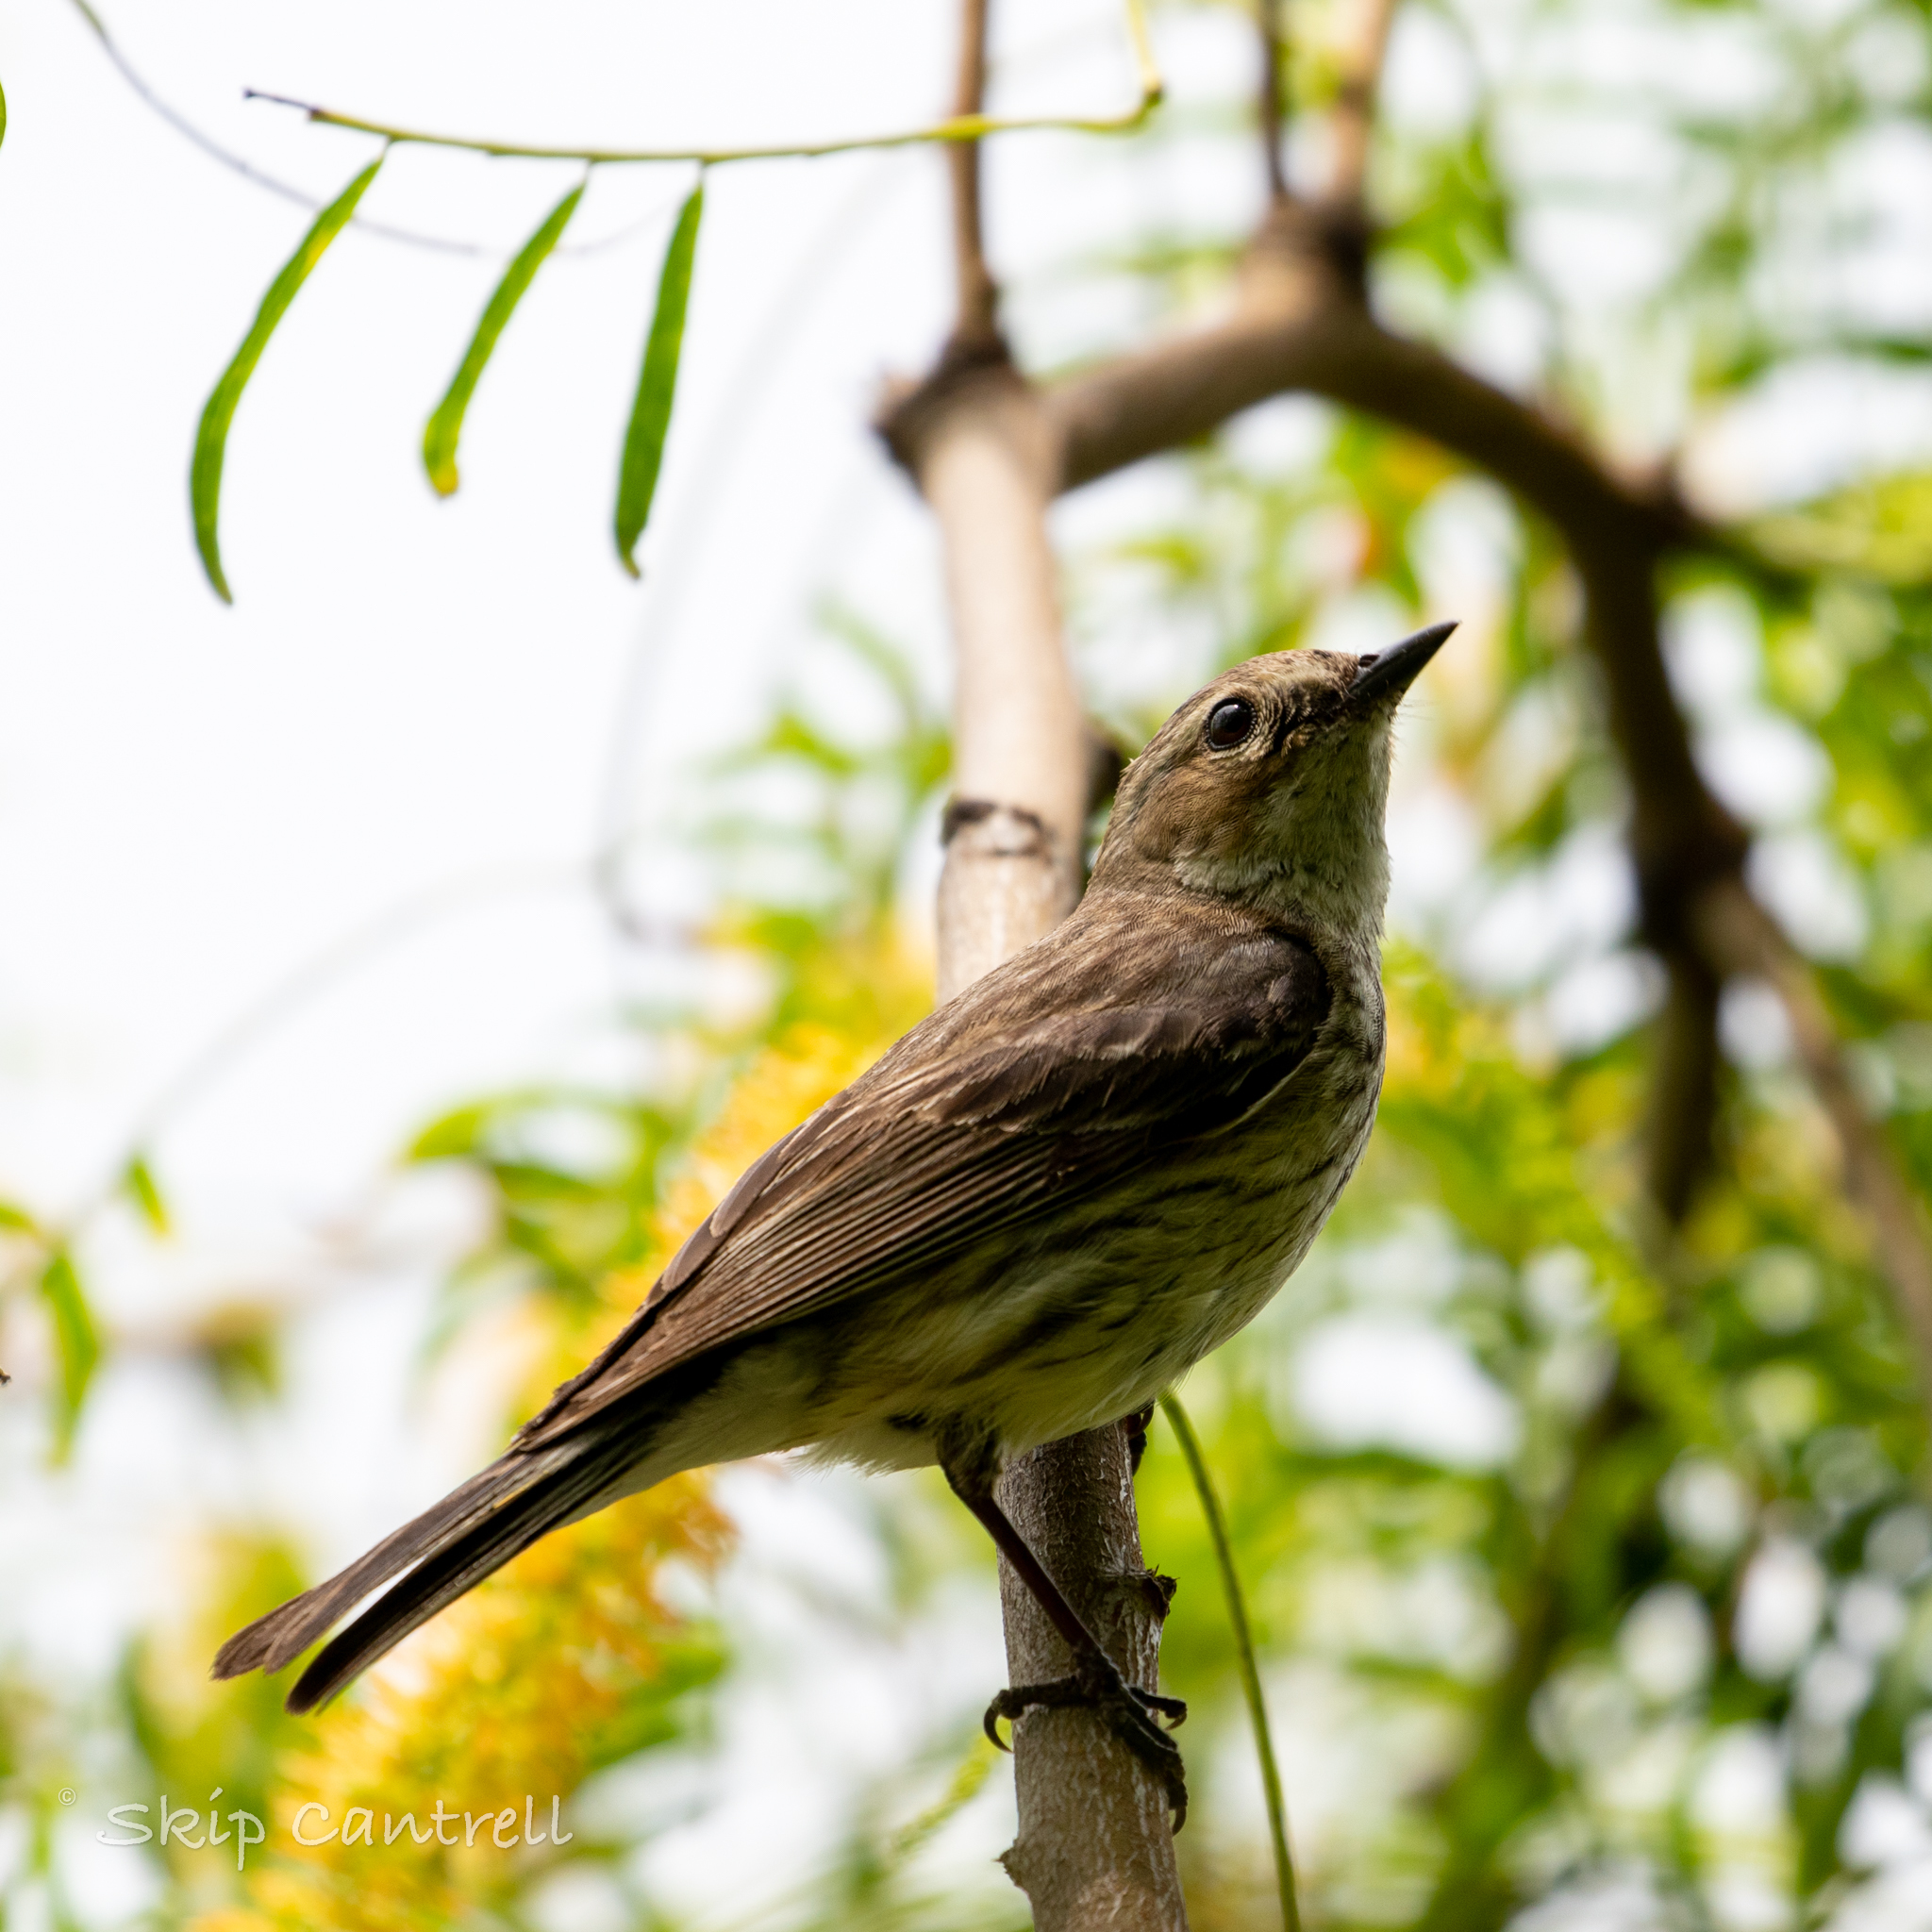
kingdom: Animalia
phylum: Chordata
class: Aves
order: Passeriformes
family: Parulidae
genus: Setophaga
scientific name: Setophaga coronata
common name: Myrtle warbler
